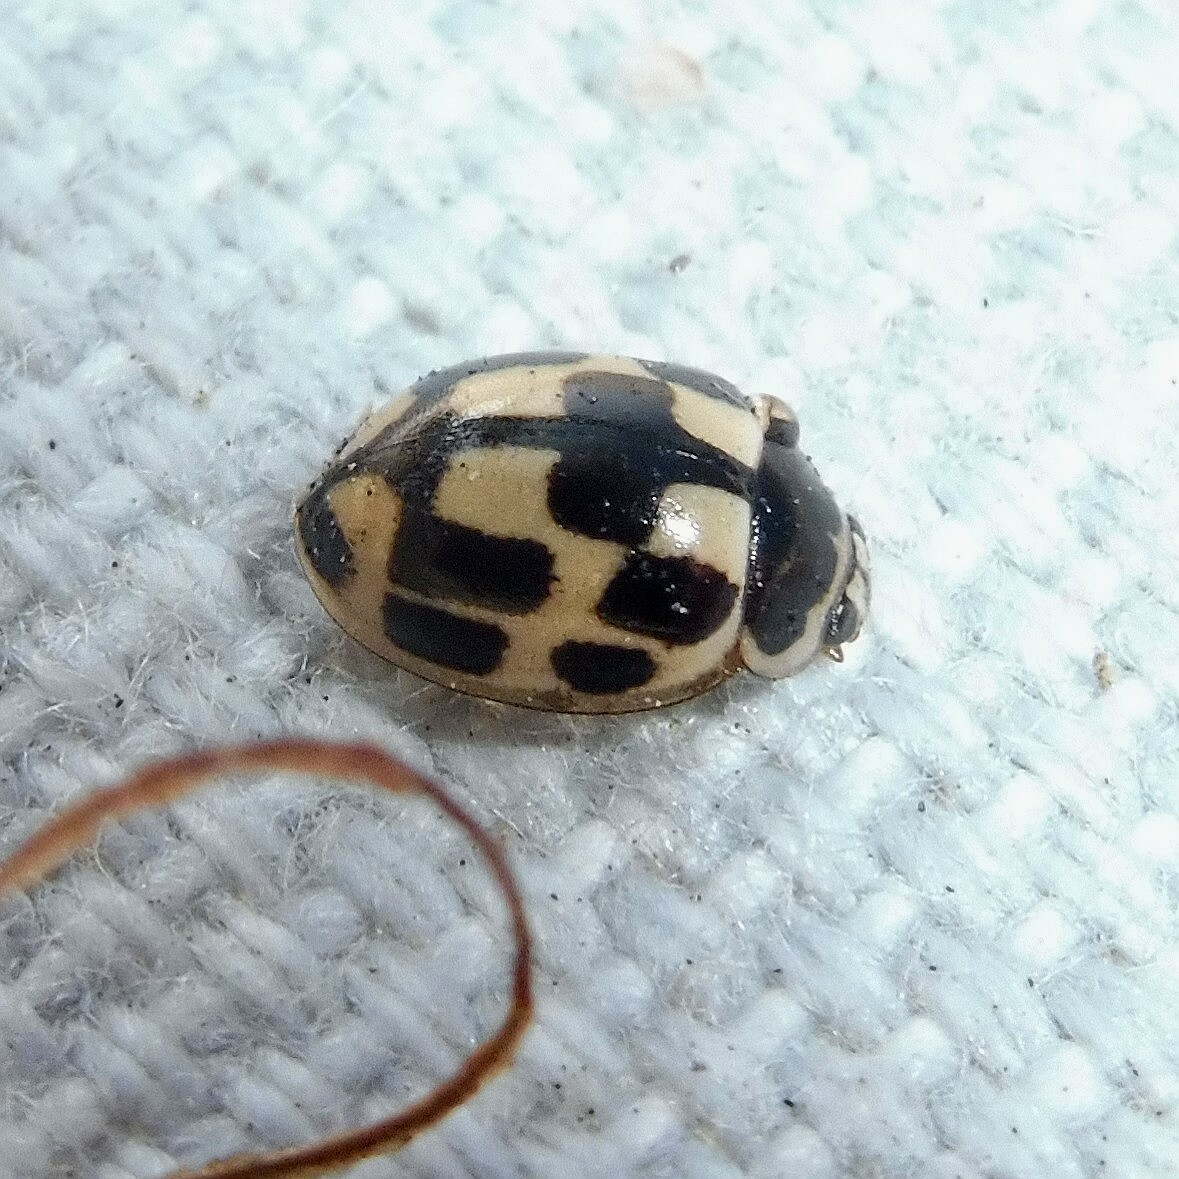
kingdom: Animalia
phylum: Arthropoda
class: Insecta
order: Coleoptera
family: Coccinellidae
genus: Propylaea
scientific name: Propylaea quatuordecimpunctata
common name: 14-spotted ladybird beetle
